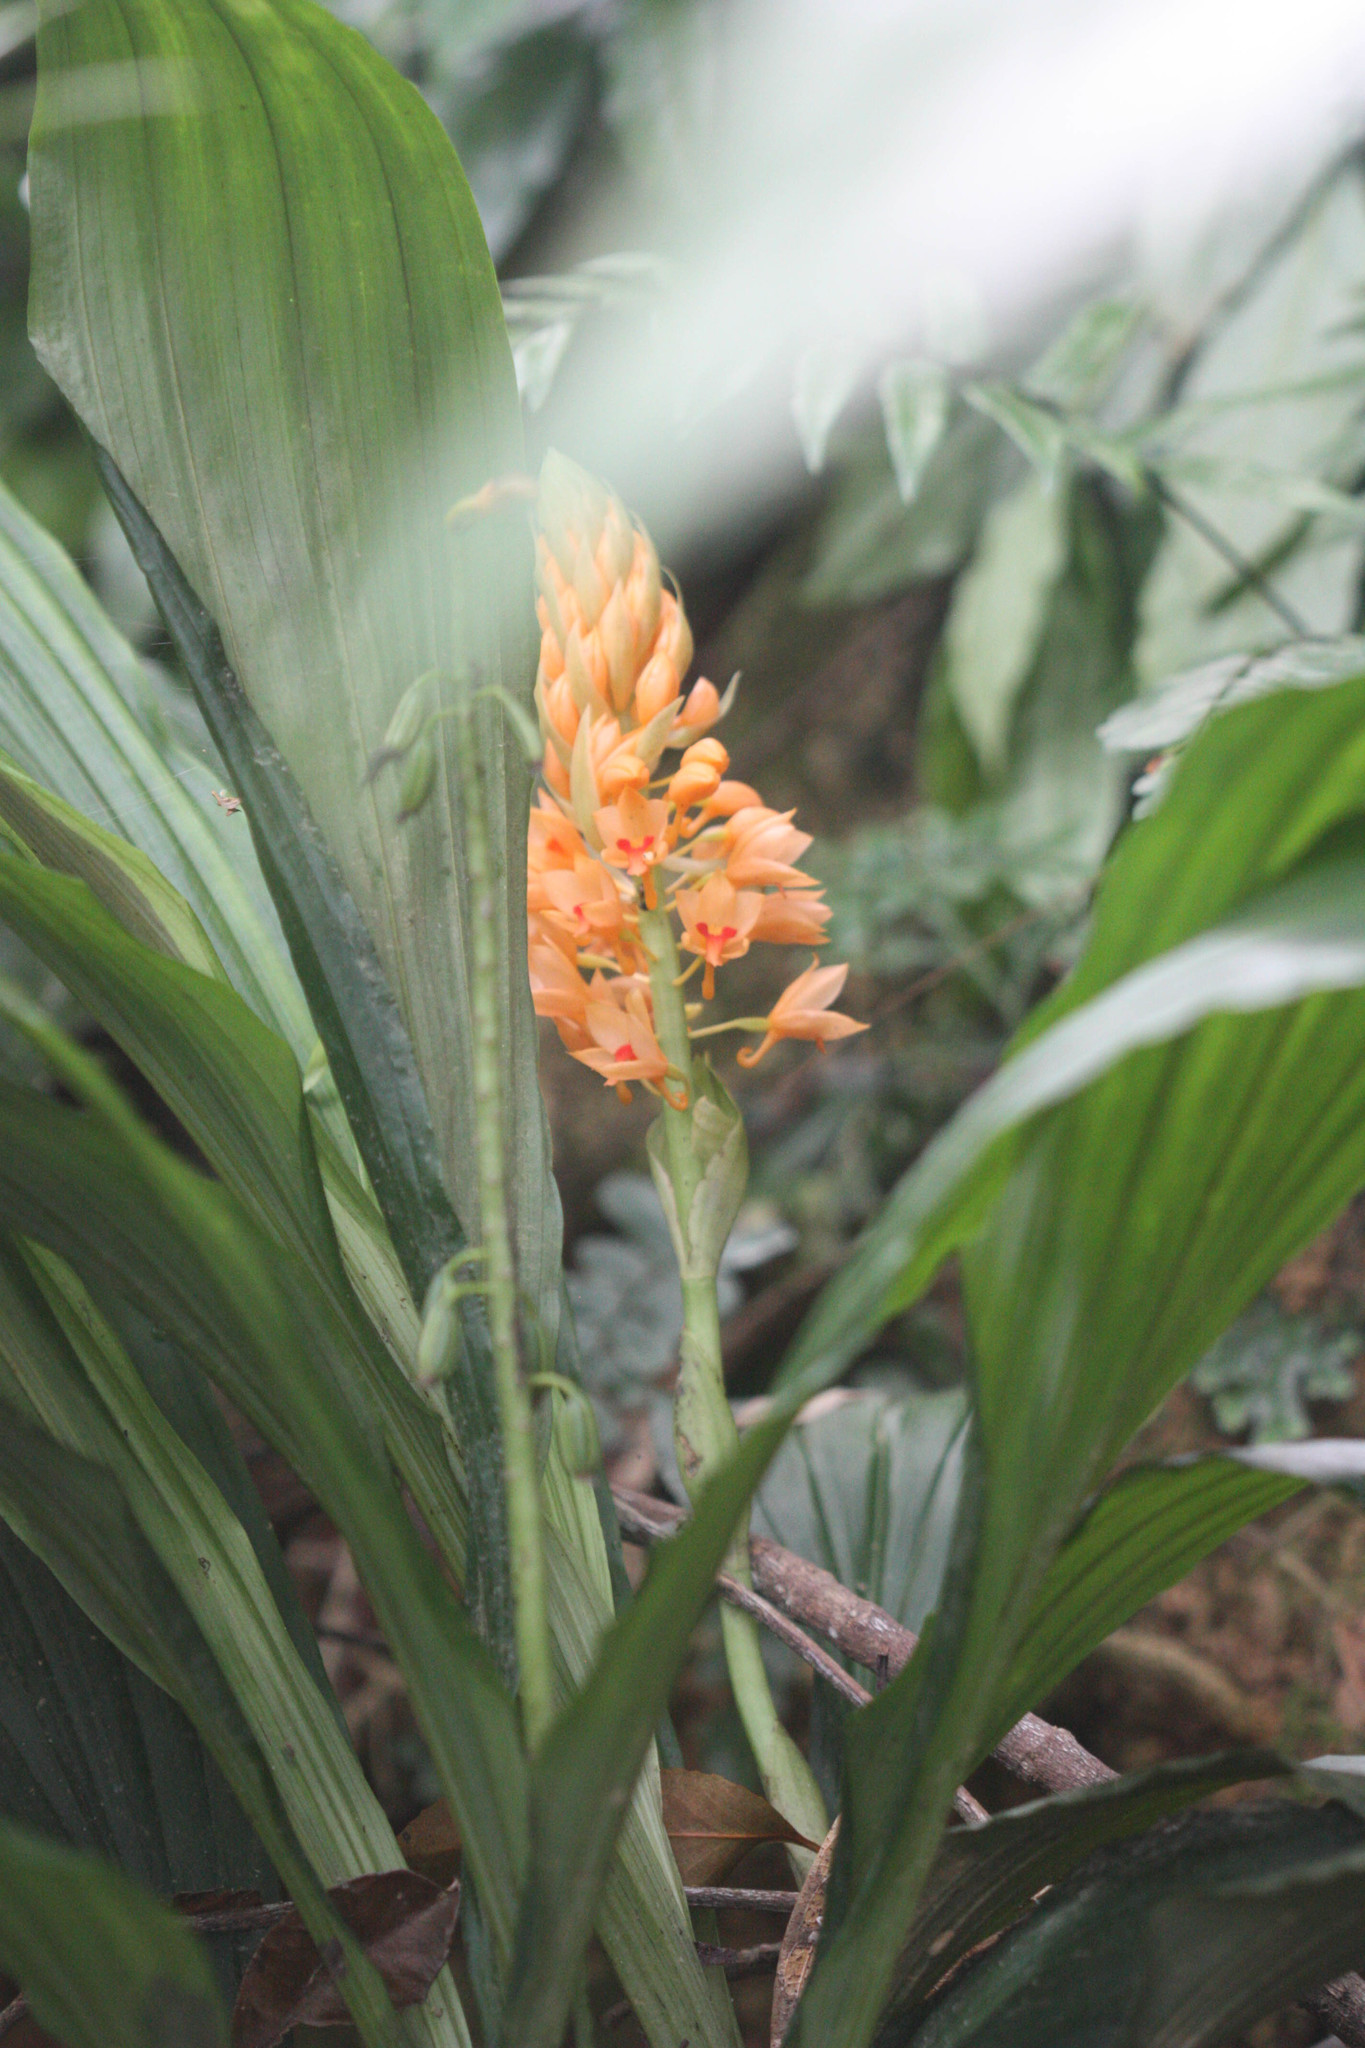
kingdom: Plantae
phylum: Tracheophyta
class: Liliopsida
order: Asparagales
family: Orchidaceae
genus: Calanthe
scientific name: Calanthe pulchra
